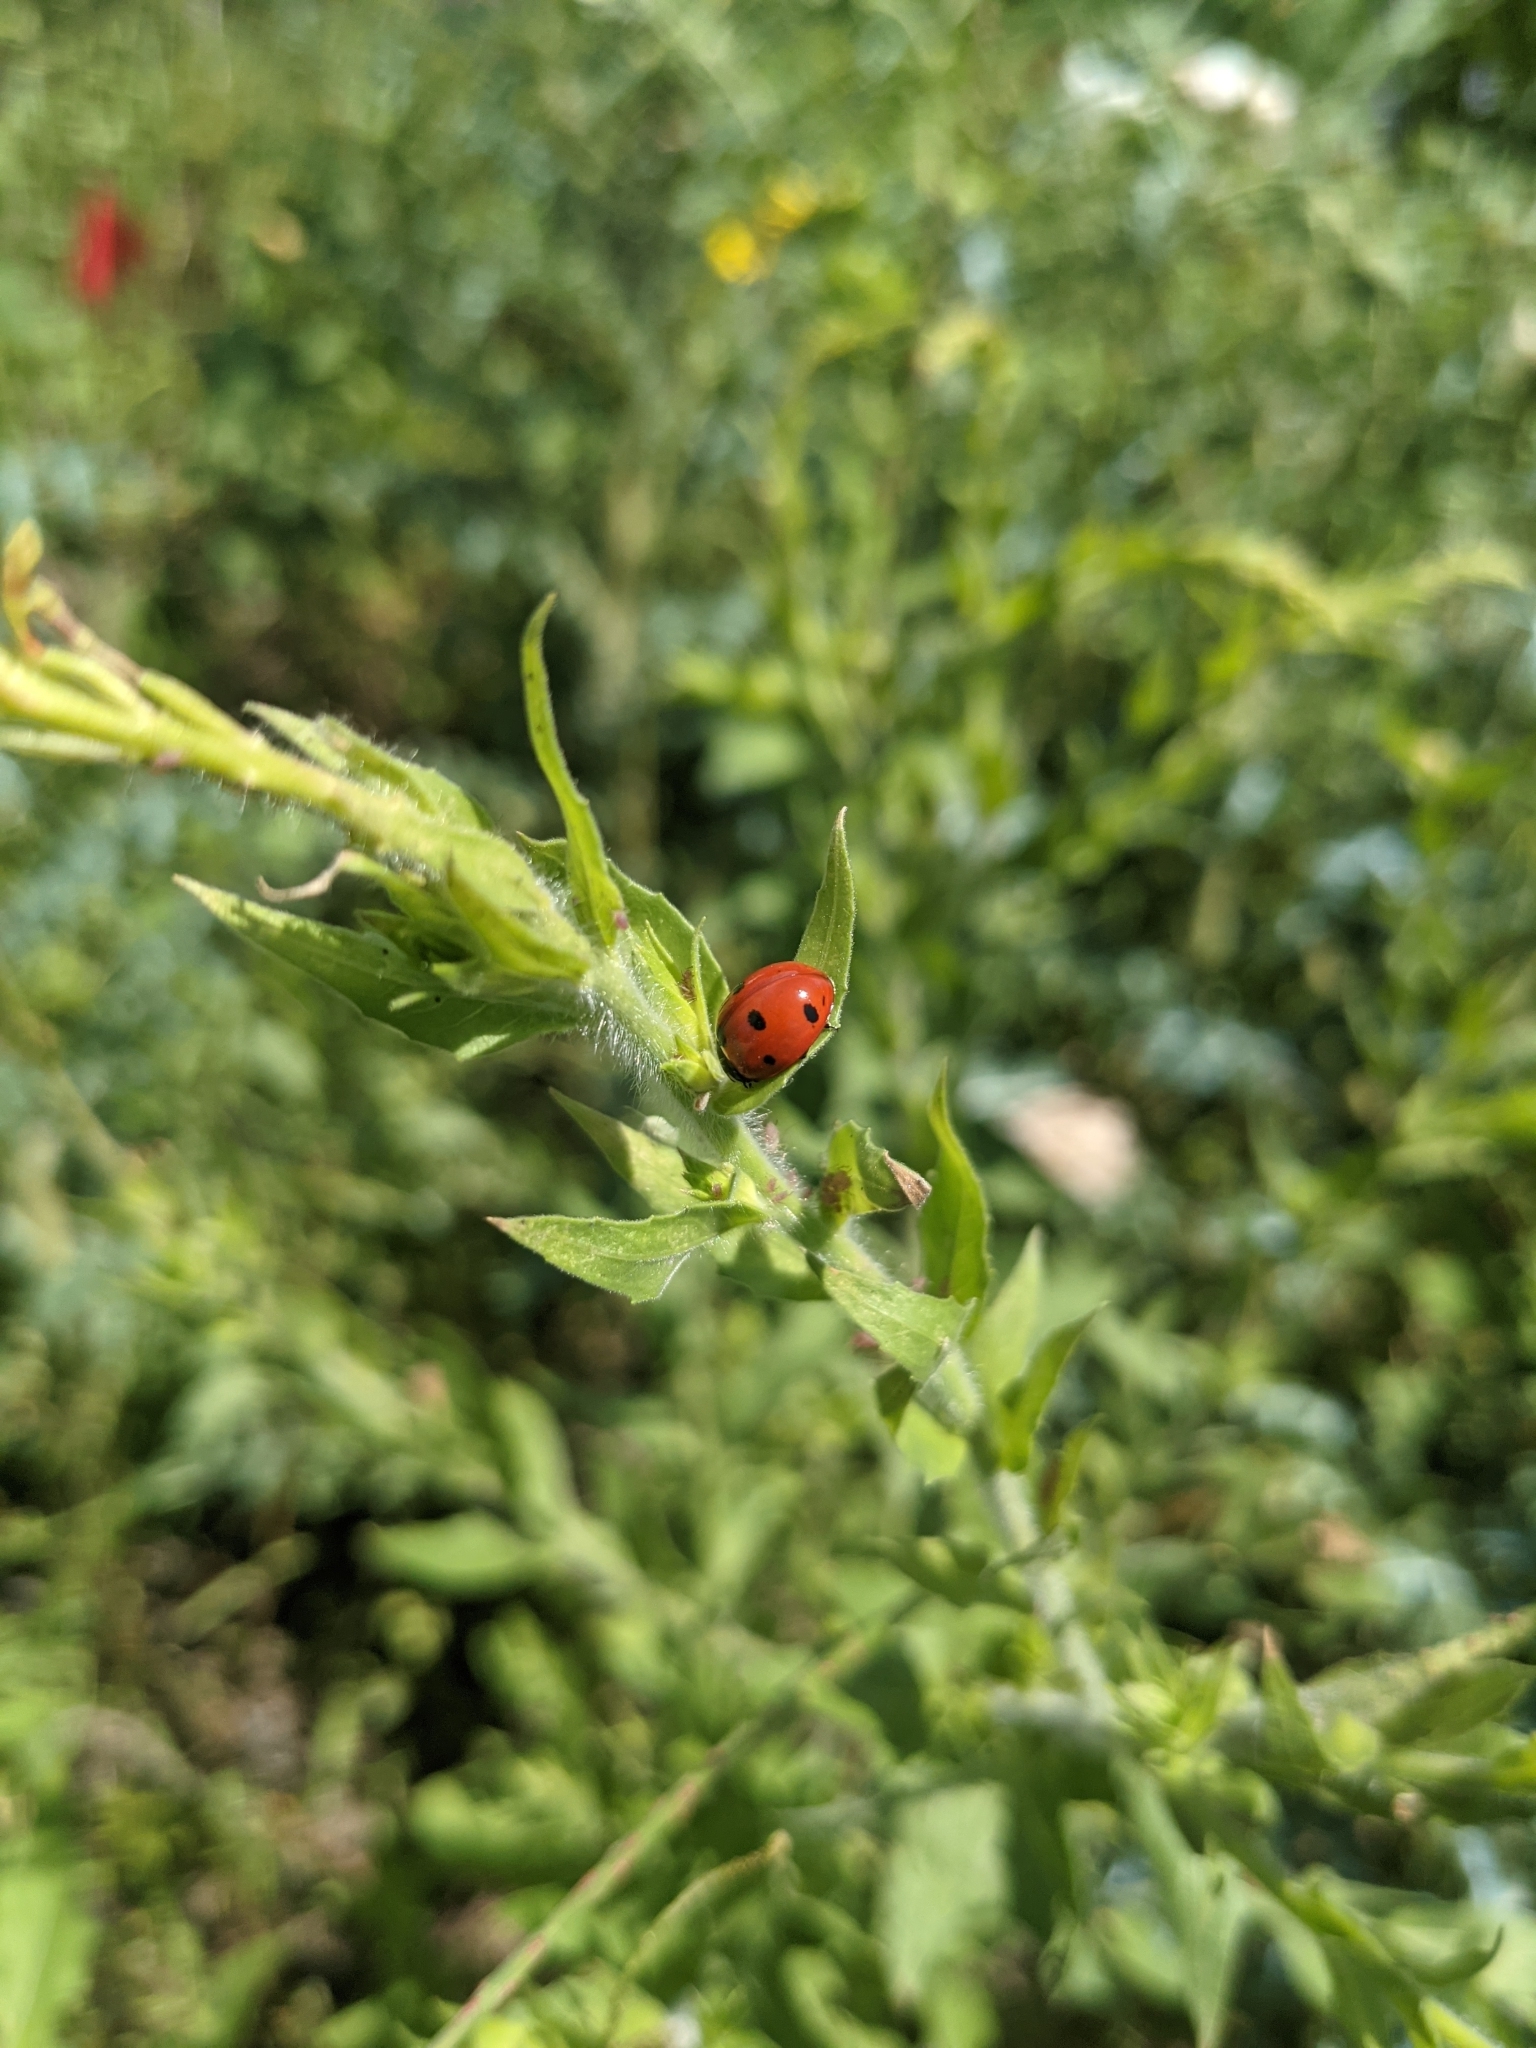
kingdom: Animalia
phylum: Arthropoda
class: Insecta
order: Coleoptera
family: Coccinellidae
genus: Coccinella
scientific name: Coccinella septempunctata
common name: Sevenspotted lady beetle
